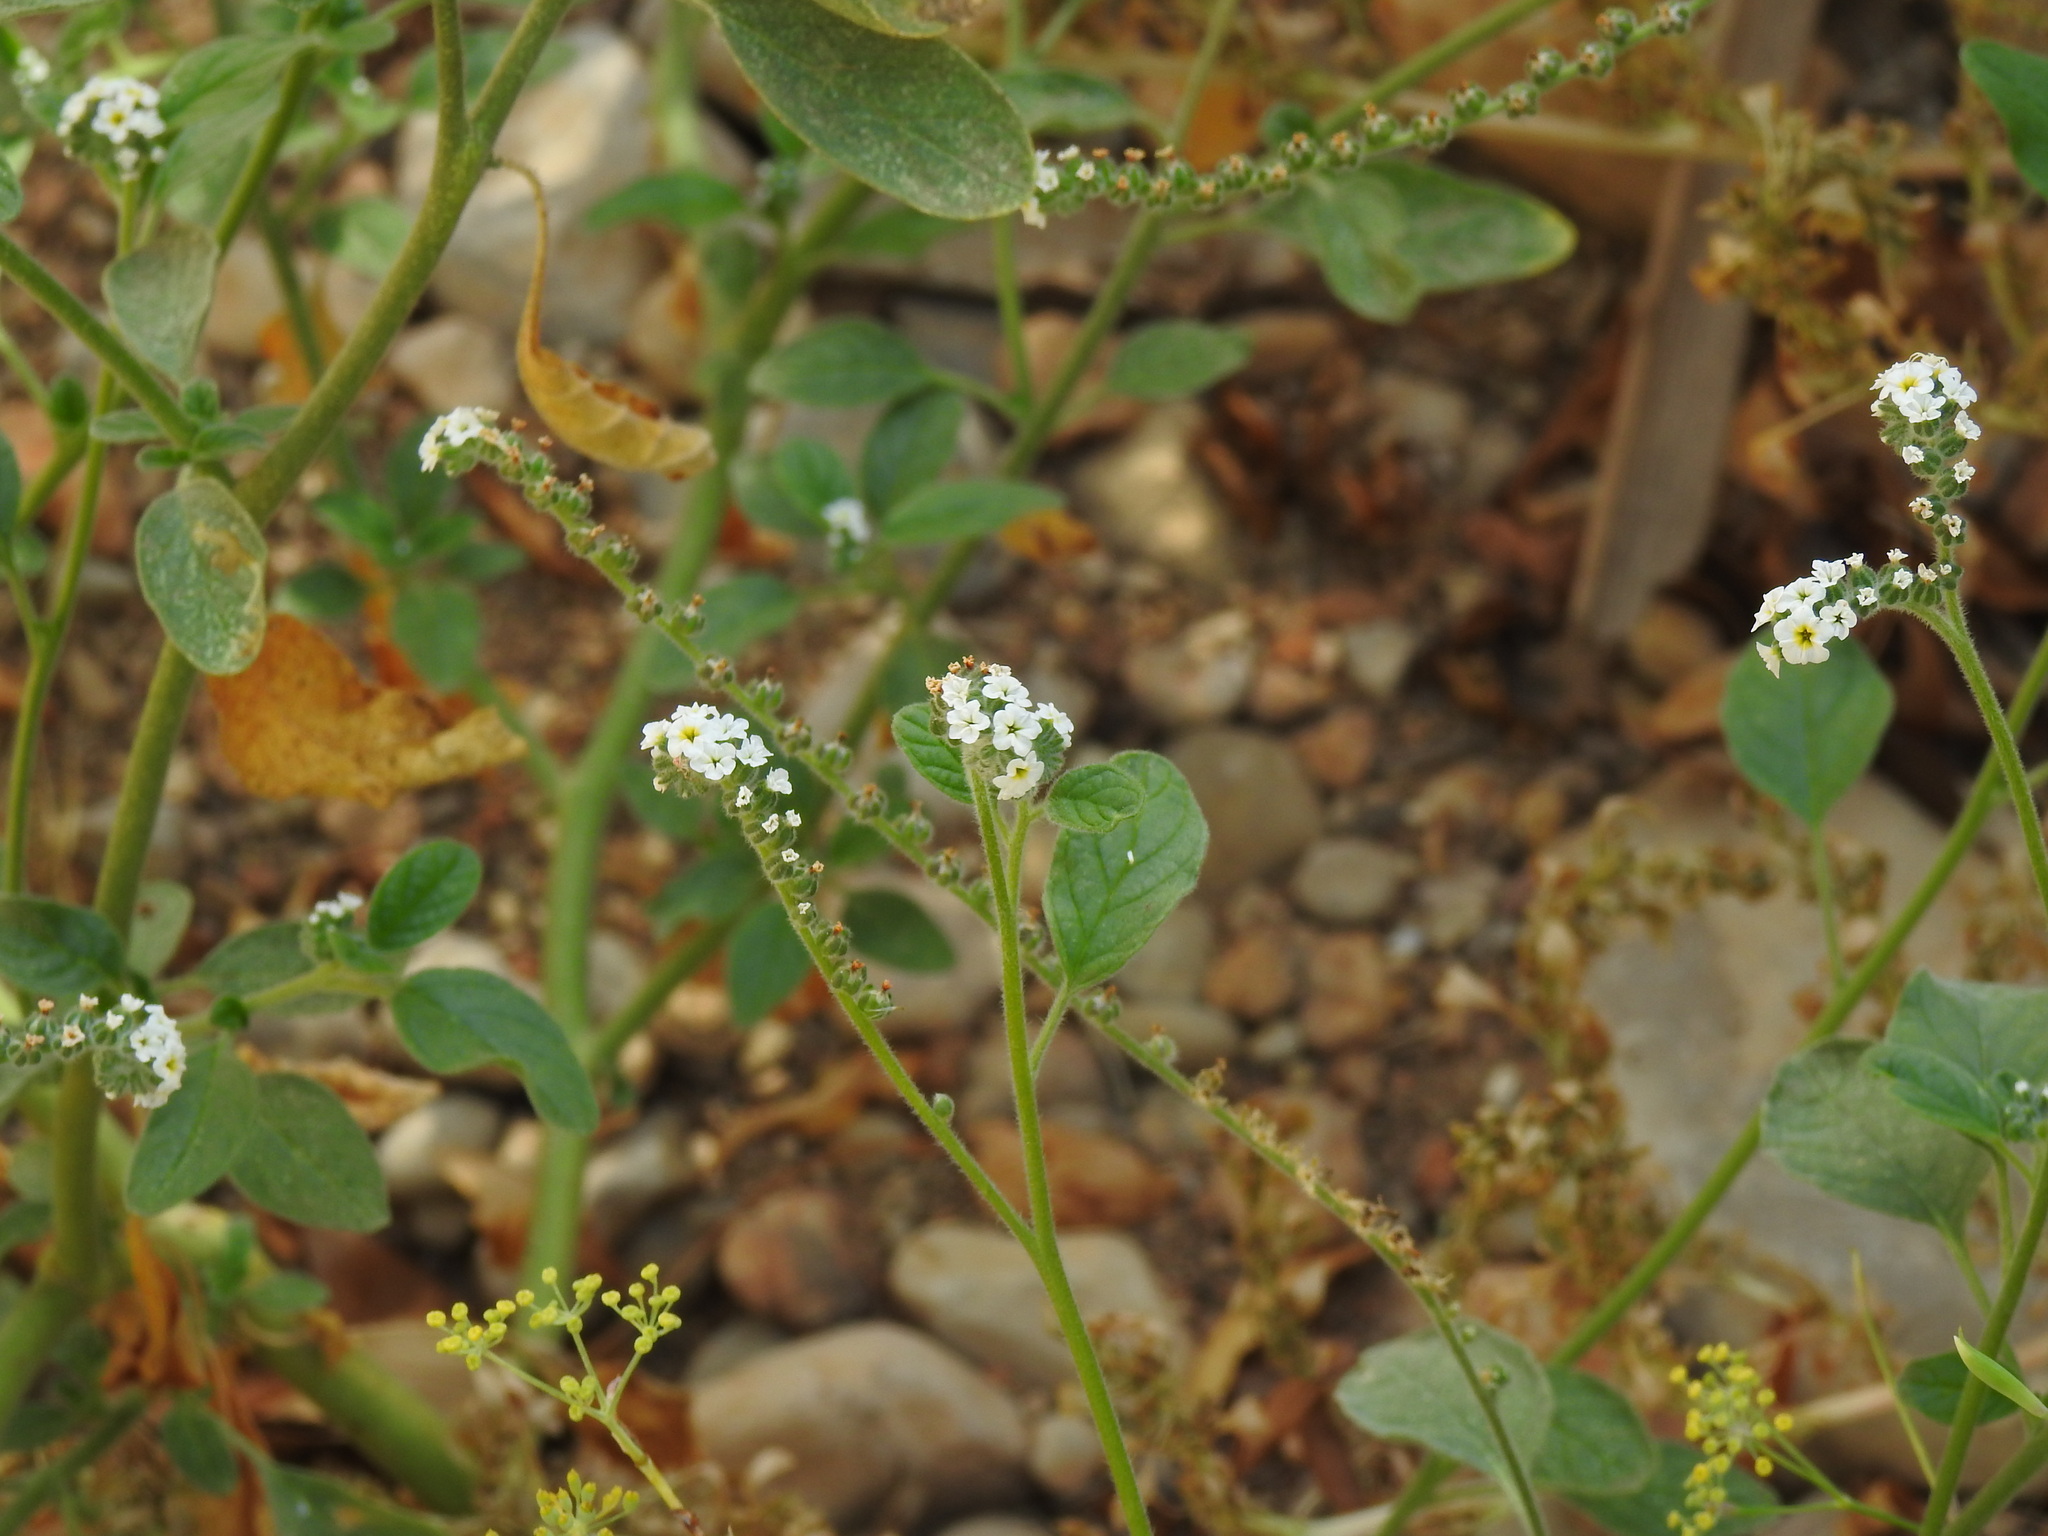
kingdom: Plantae
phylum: Tracheophyta
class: Magnoliopsida
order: Boraginales
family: Heliotropiaceae
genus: Heliotropium
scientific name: Heliotropium europaeum
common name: European heliotrope
